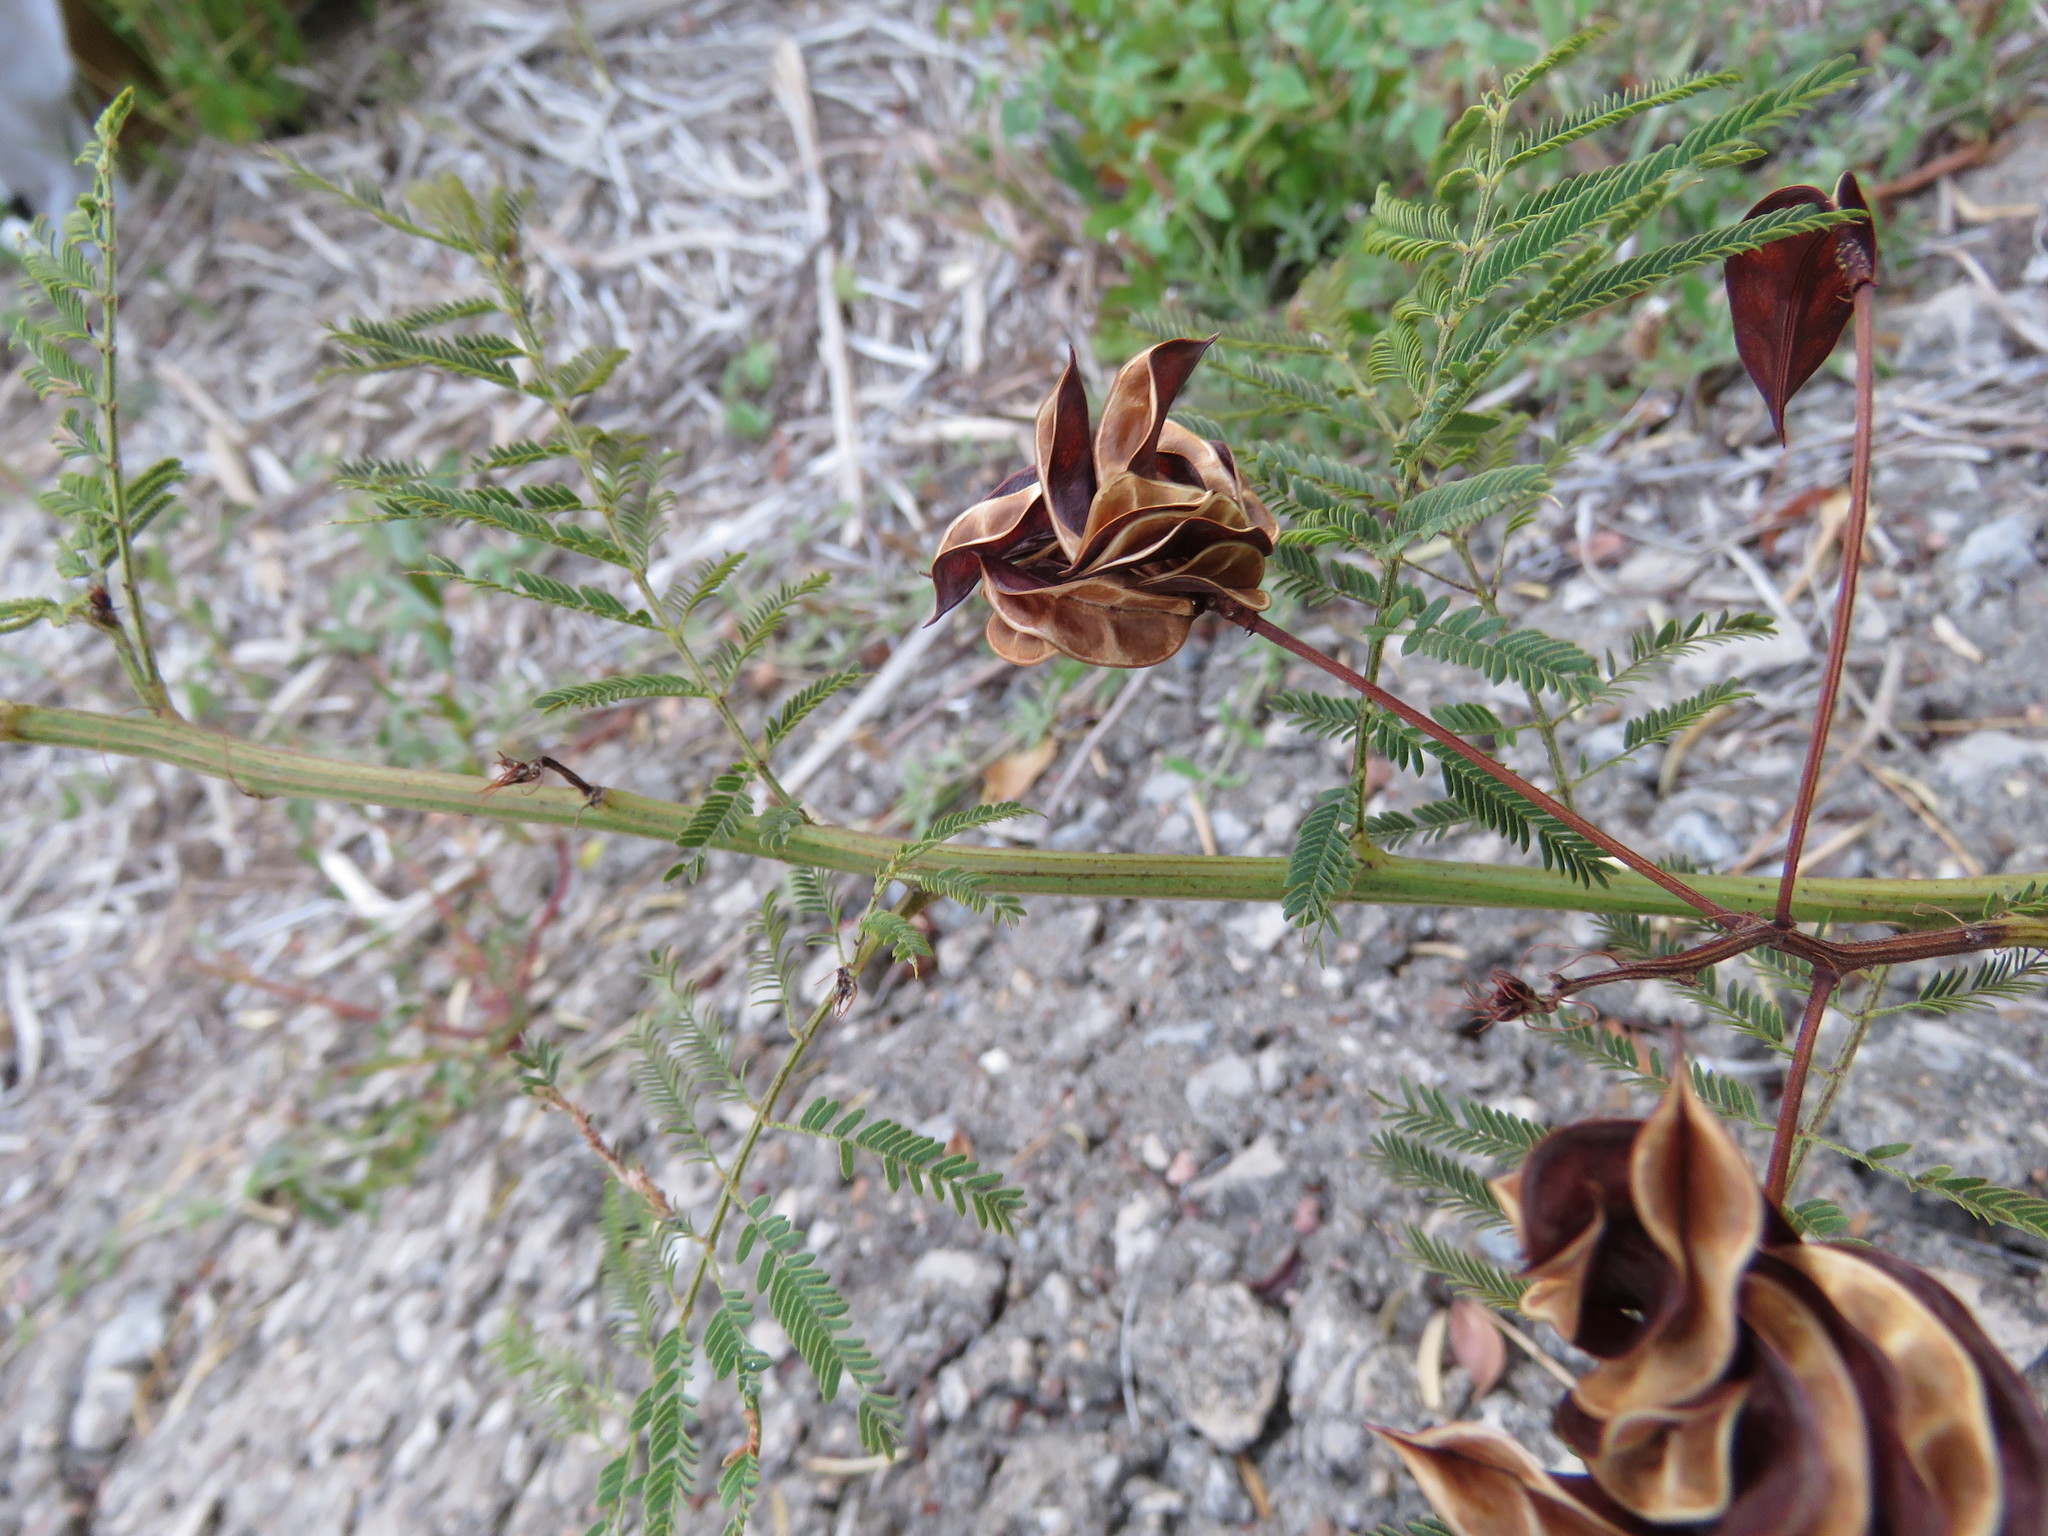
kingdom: Plantae
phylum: Tracheophyta
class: Magnoliopsida
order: Fabales
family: Fabaceae
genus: Desmanthus
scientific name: Desmanthus illinoensis
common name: Illinois bundle-flower
